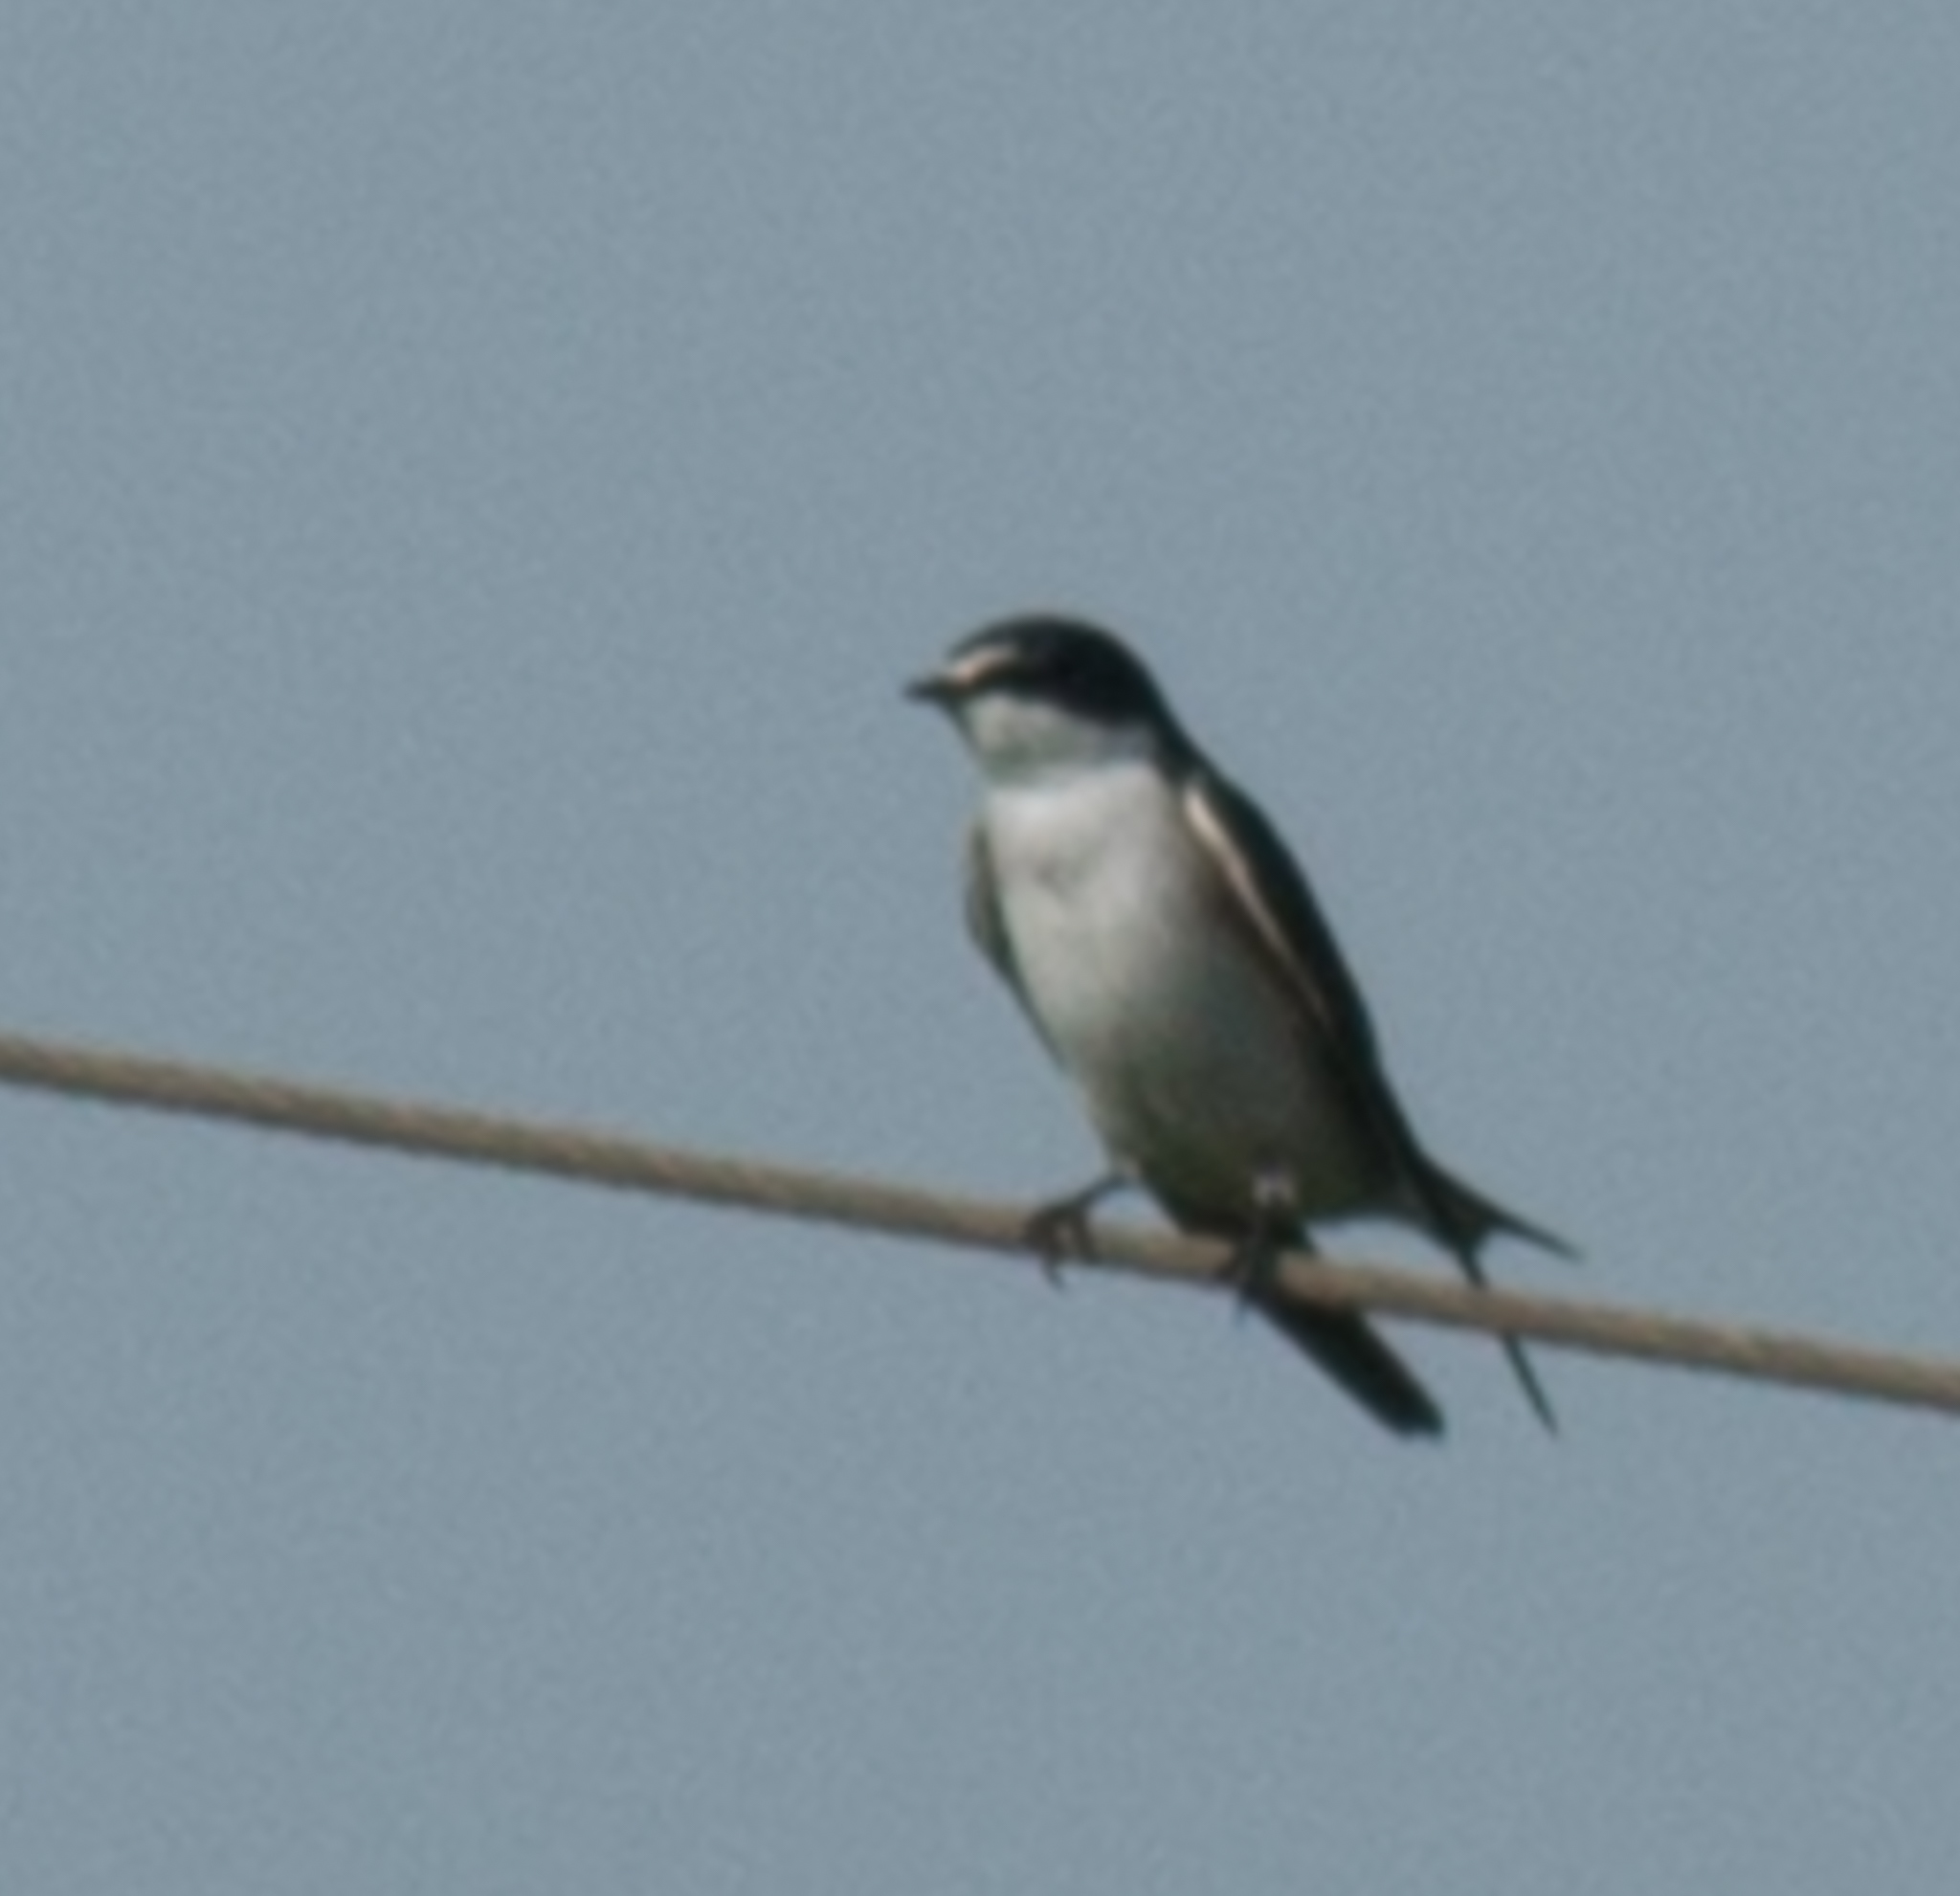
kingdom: Animalia
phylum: Chordata
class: Aves
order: Passeriformes
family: Hirundinidae
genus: Tachycineta
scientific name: Tachycineta leucorrhoa
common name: White-rumped swallow
